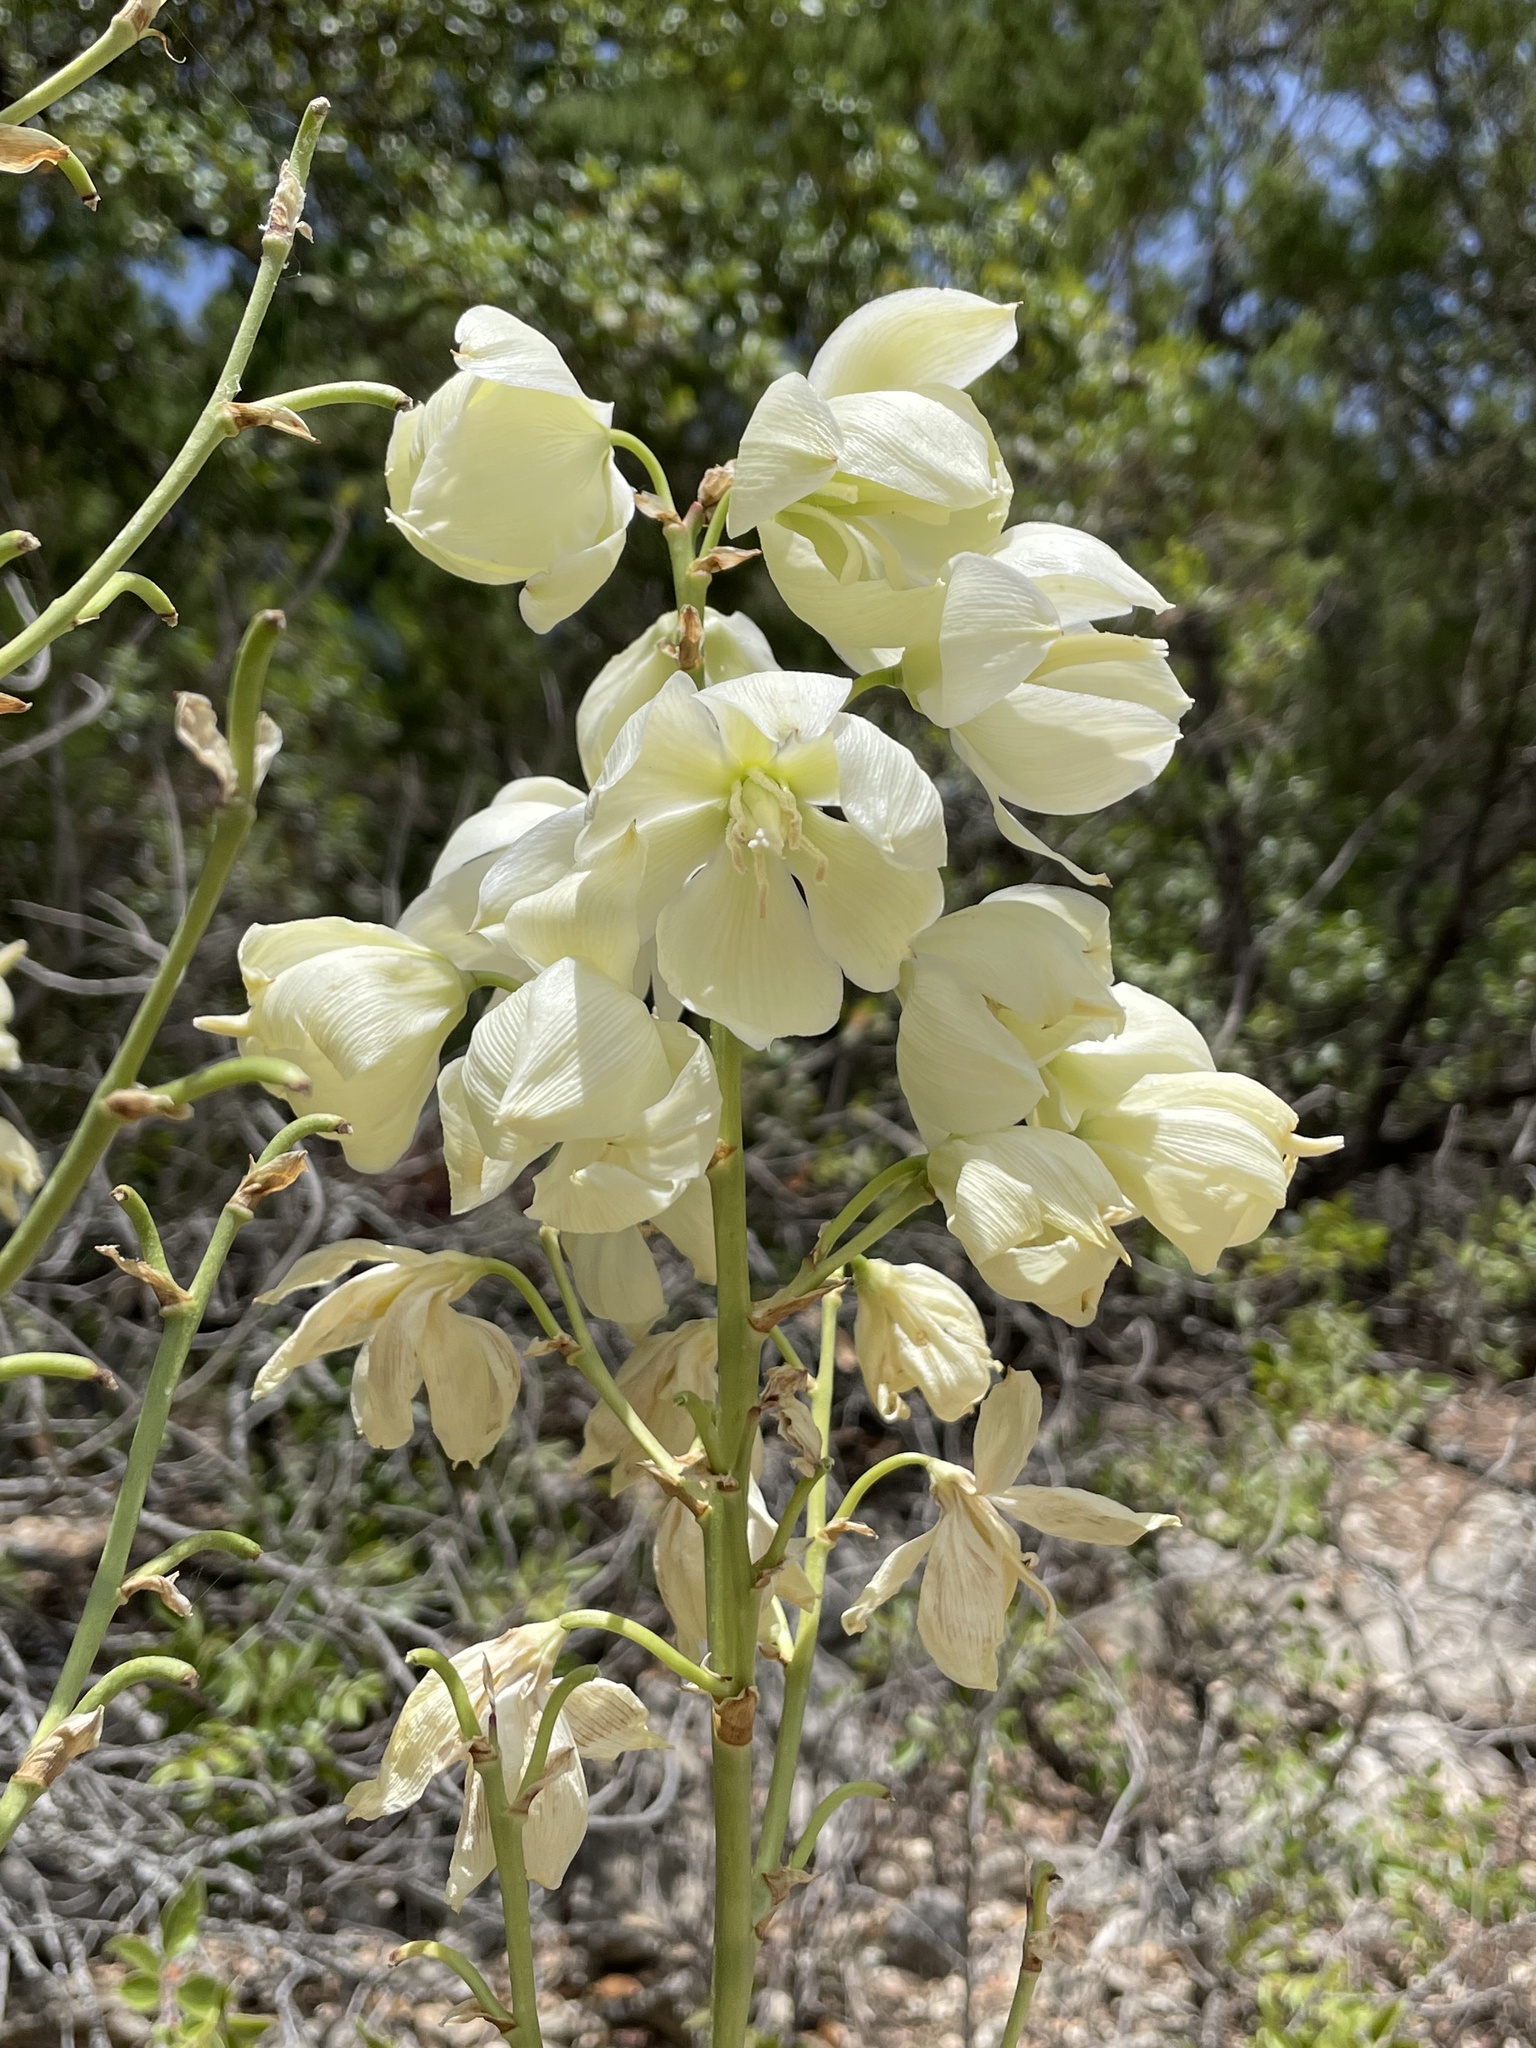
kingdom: Plantae
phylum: Tracheophyta
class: Liliopsida
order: Asparagales
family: Asparagaceae
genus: Yucca
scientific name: Yucca rupicola
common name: Twisted-leaf spanish-dagger
